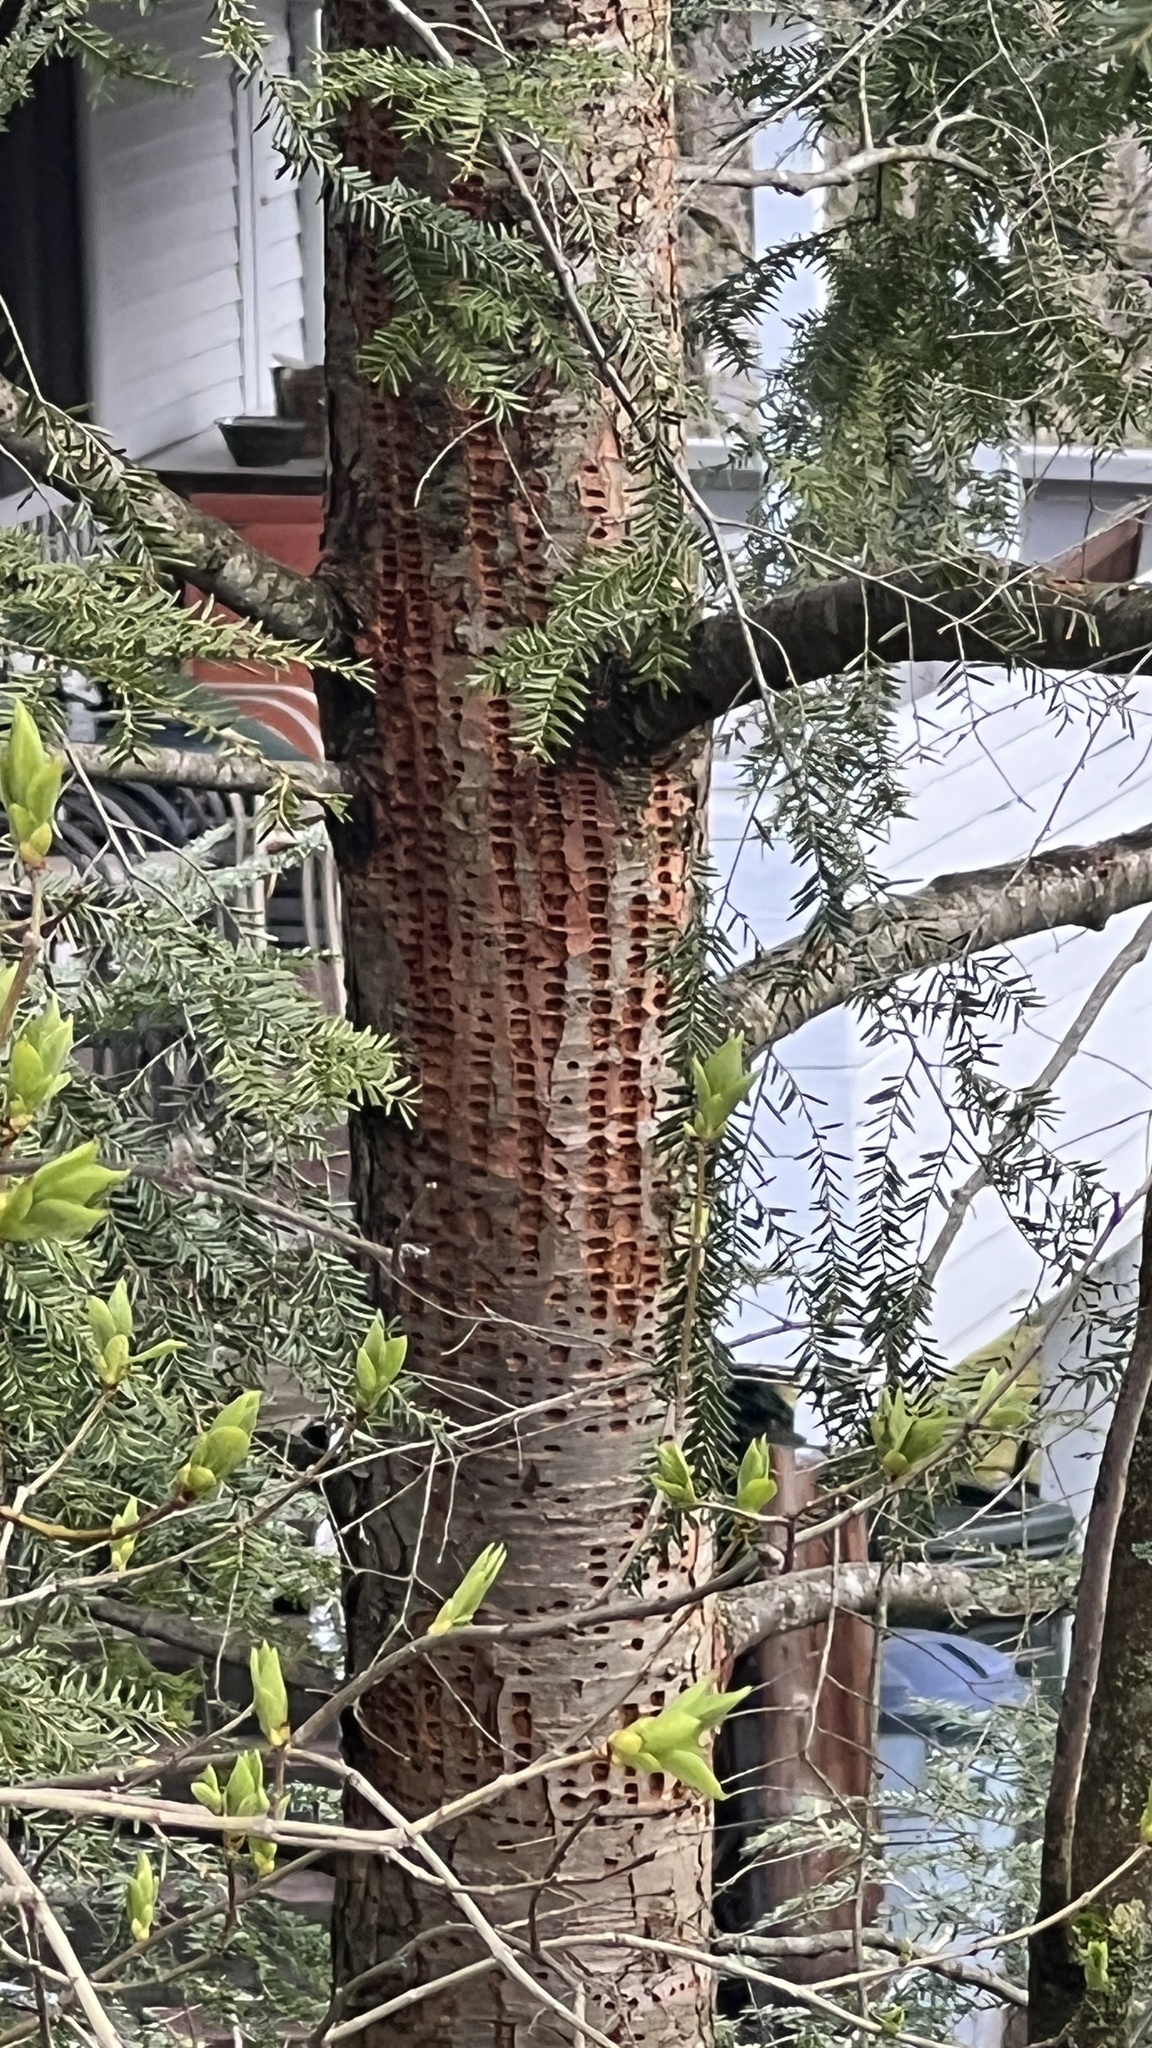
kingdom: Animalia
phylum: Chordata
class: Aves
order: Piciformes
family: Picidae
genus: Sphyrapicus
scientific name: Sphyrapicus varius
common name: Yellow-bellied sapsucker
